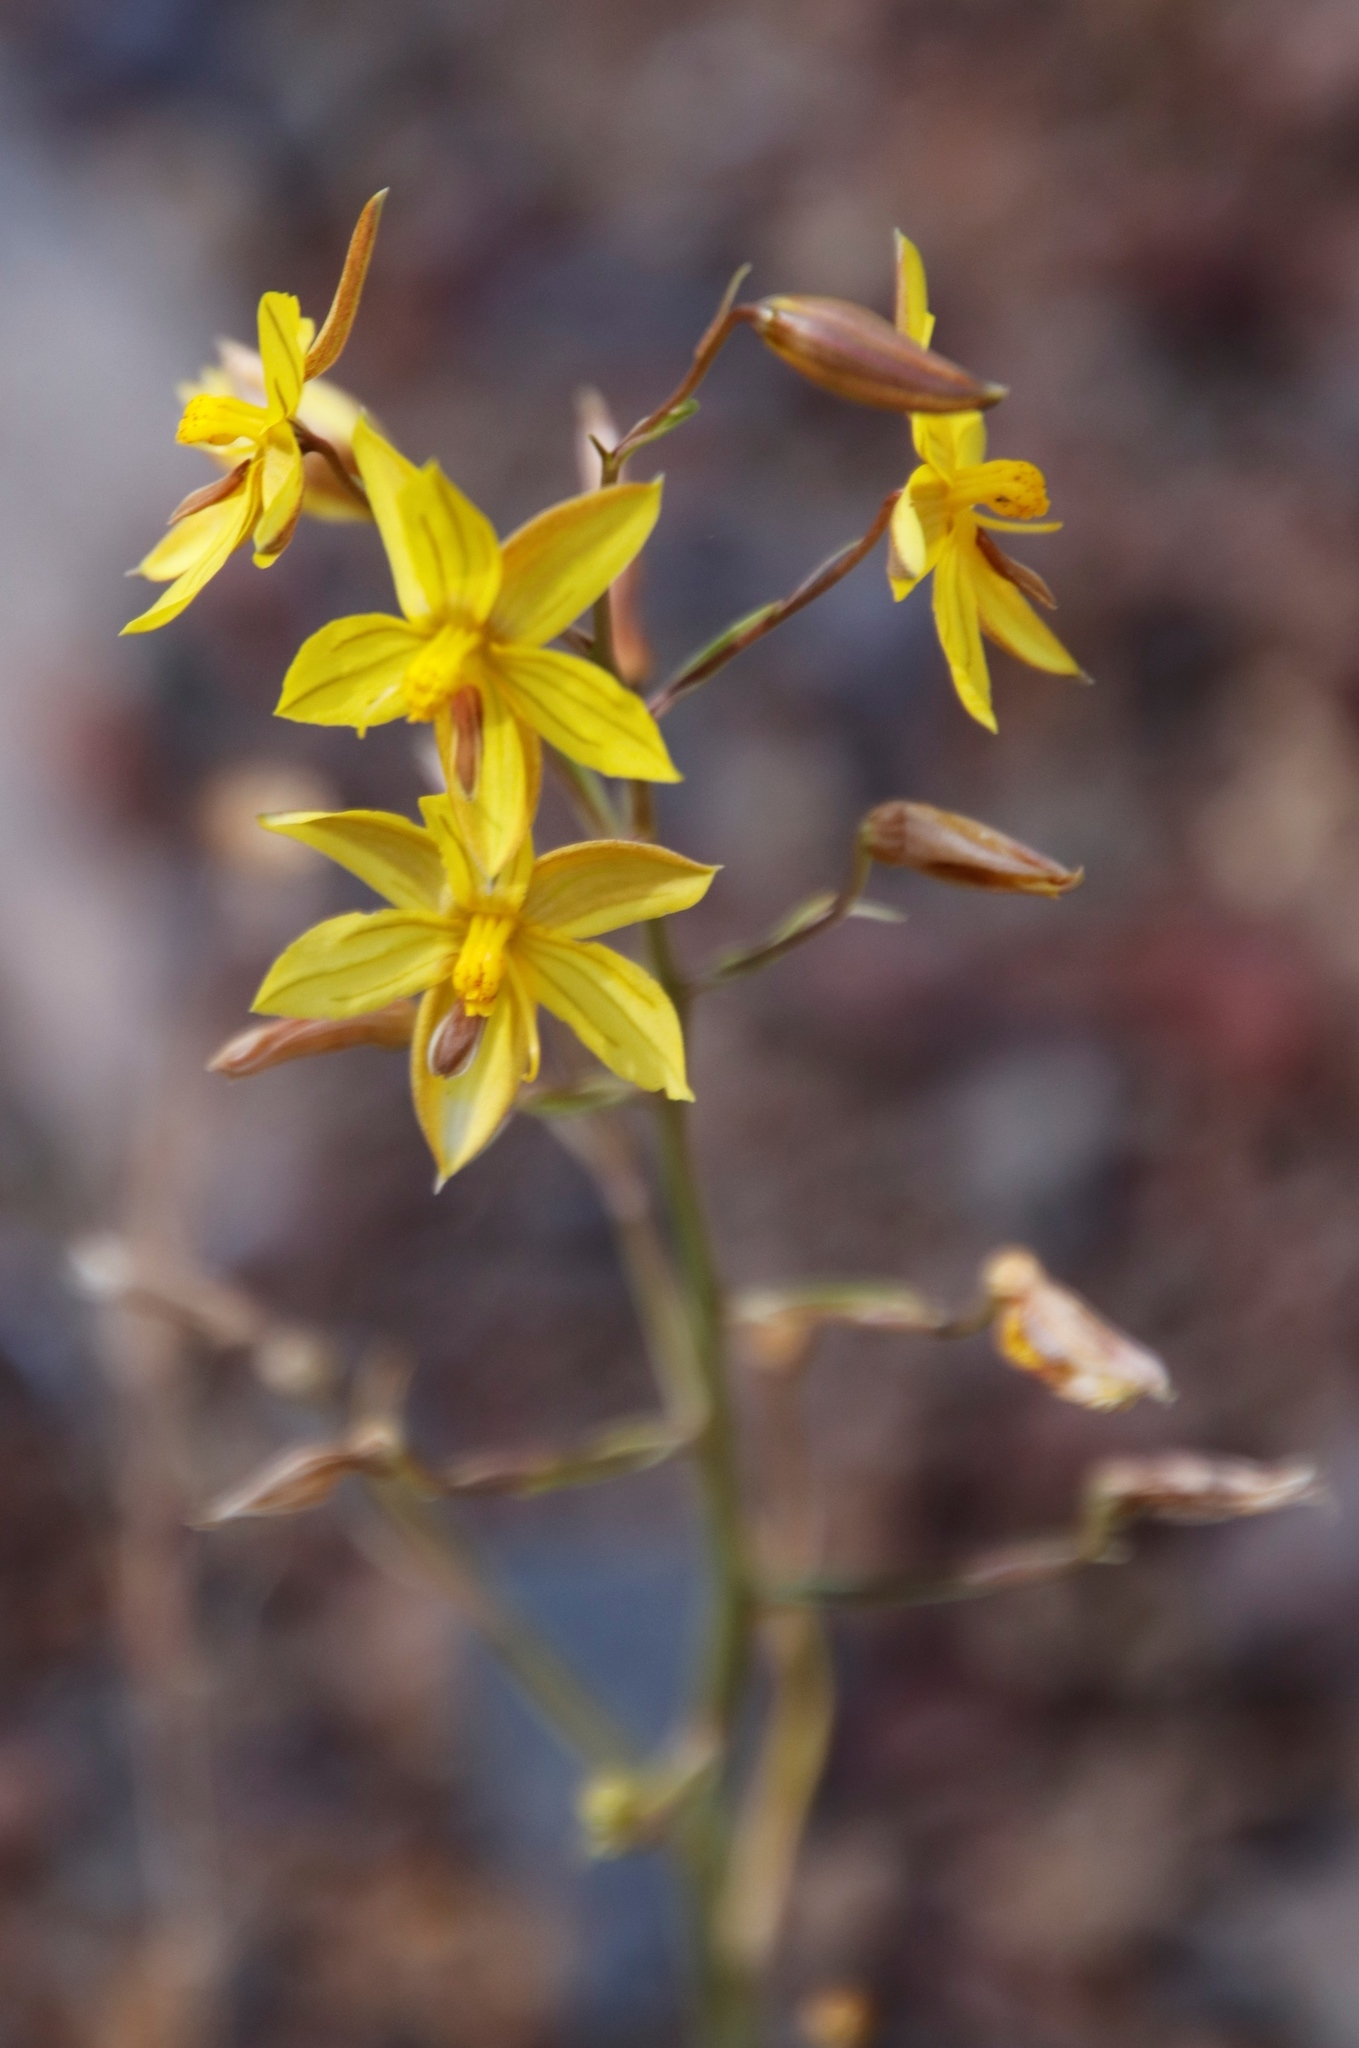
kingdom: Plantae
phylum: Tracheophyta
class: Liliopsida
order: Asparagales
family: Tecophilaeaceae
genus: Cyanella
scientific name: Cyanella lutea
